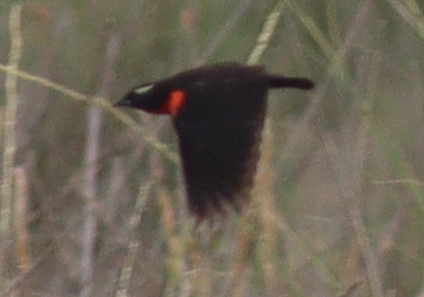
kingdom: Animalia
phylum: Chordata
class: Aves
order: Passeriformes
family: Icteridae
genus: Sturnella
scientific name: Sturnella superciliaris
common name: White-browed blackbird
